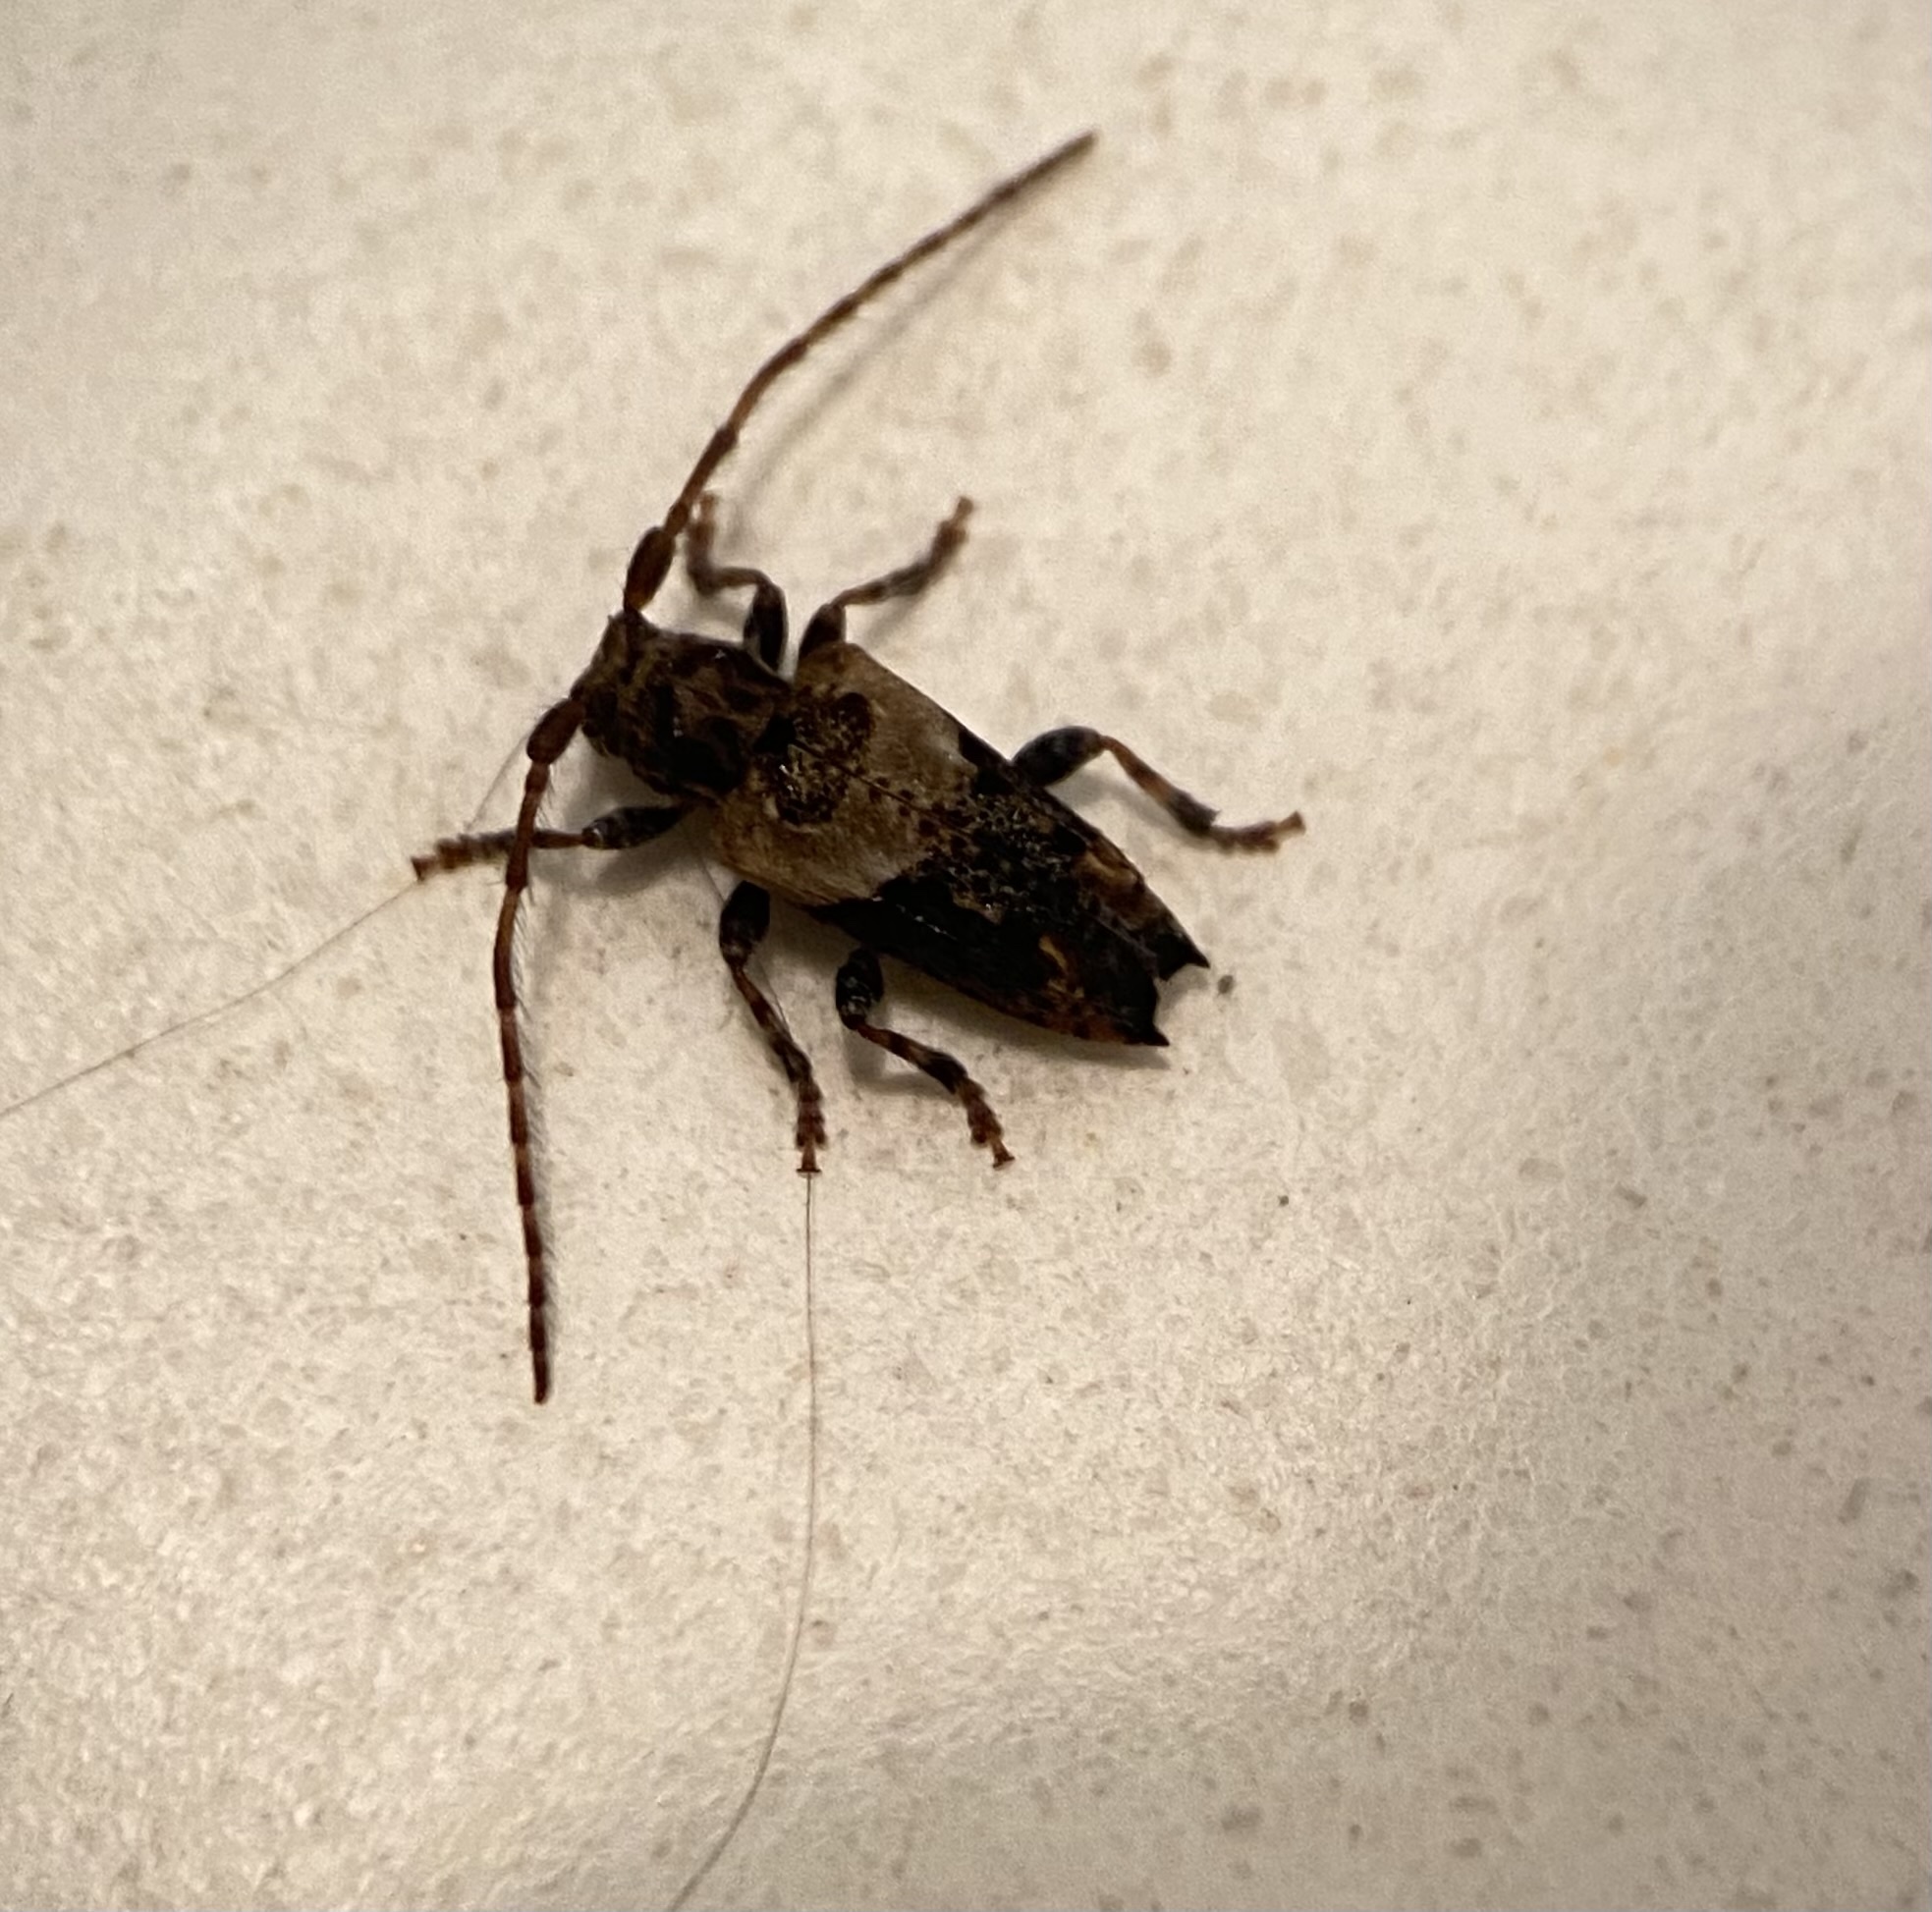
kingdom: Animalia
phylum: Arthropoda
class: Insecta
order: Coleoptera
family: Cerambycidae
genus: Pogonocherus
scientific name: Pogonocherus hispidus
